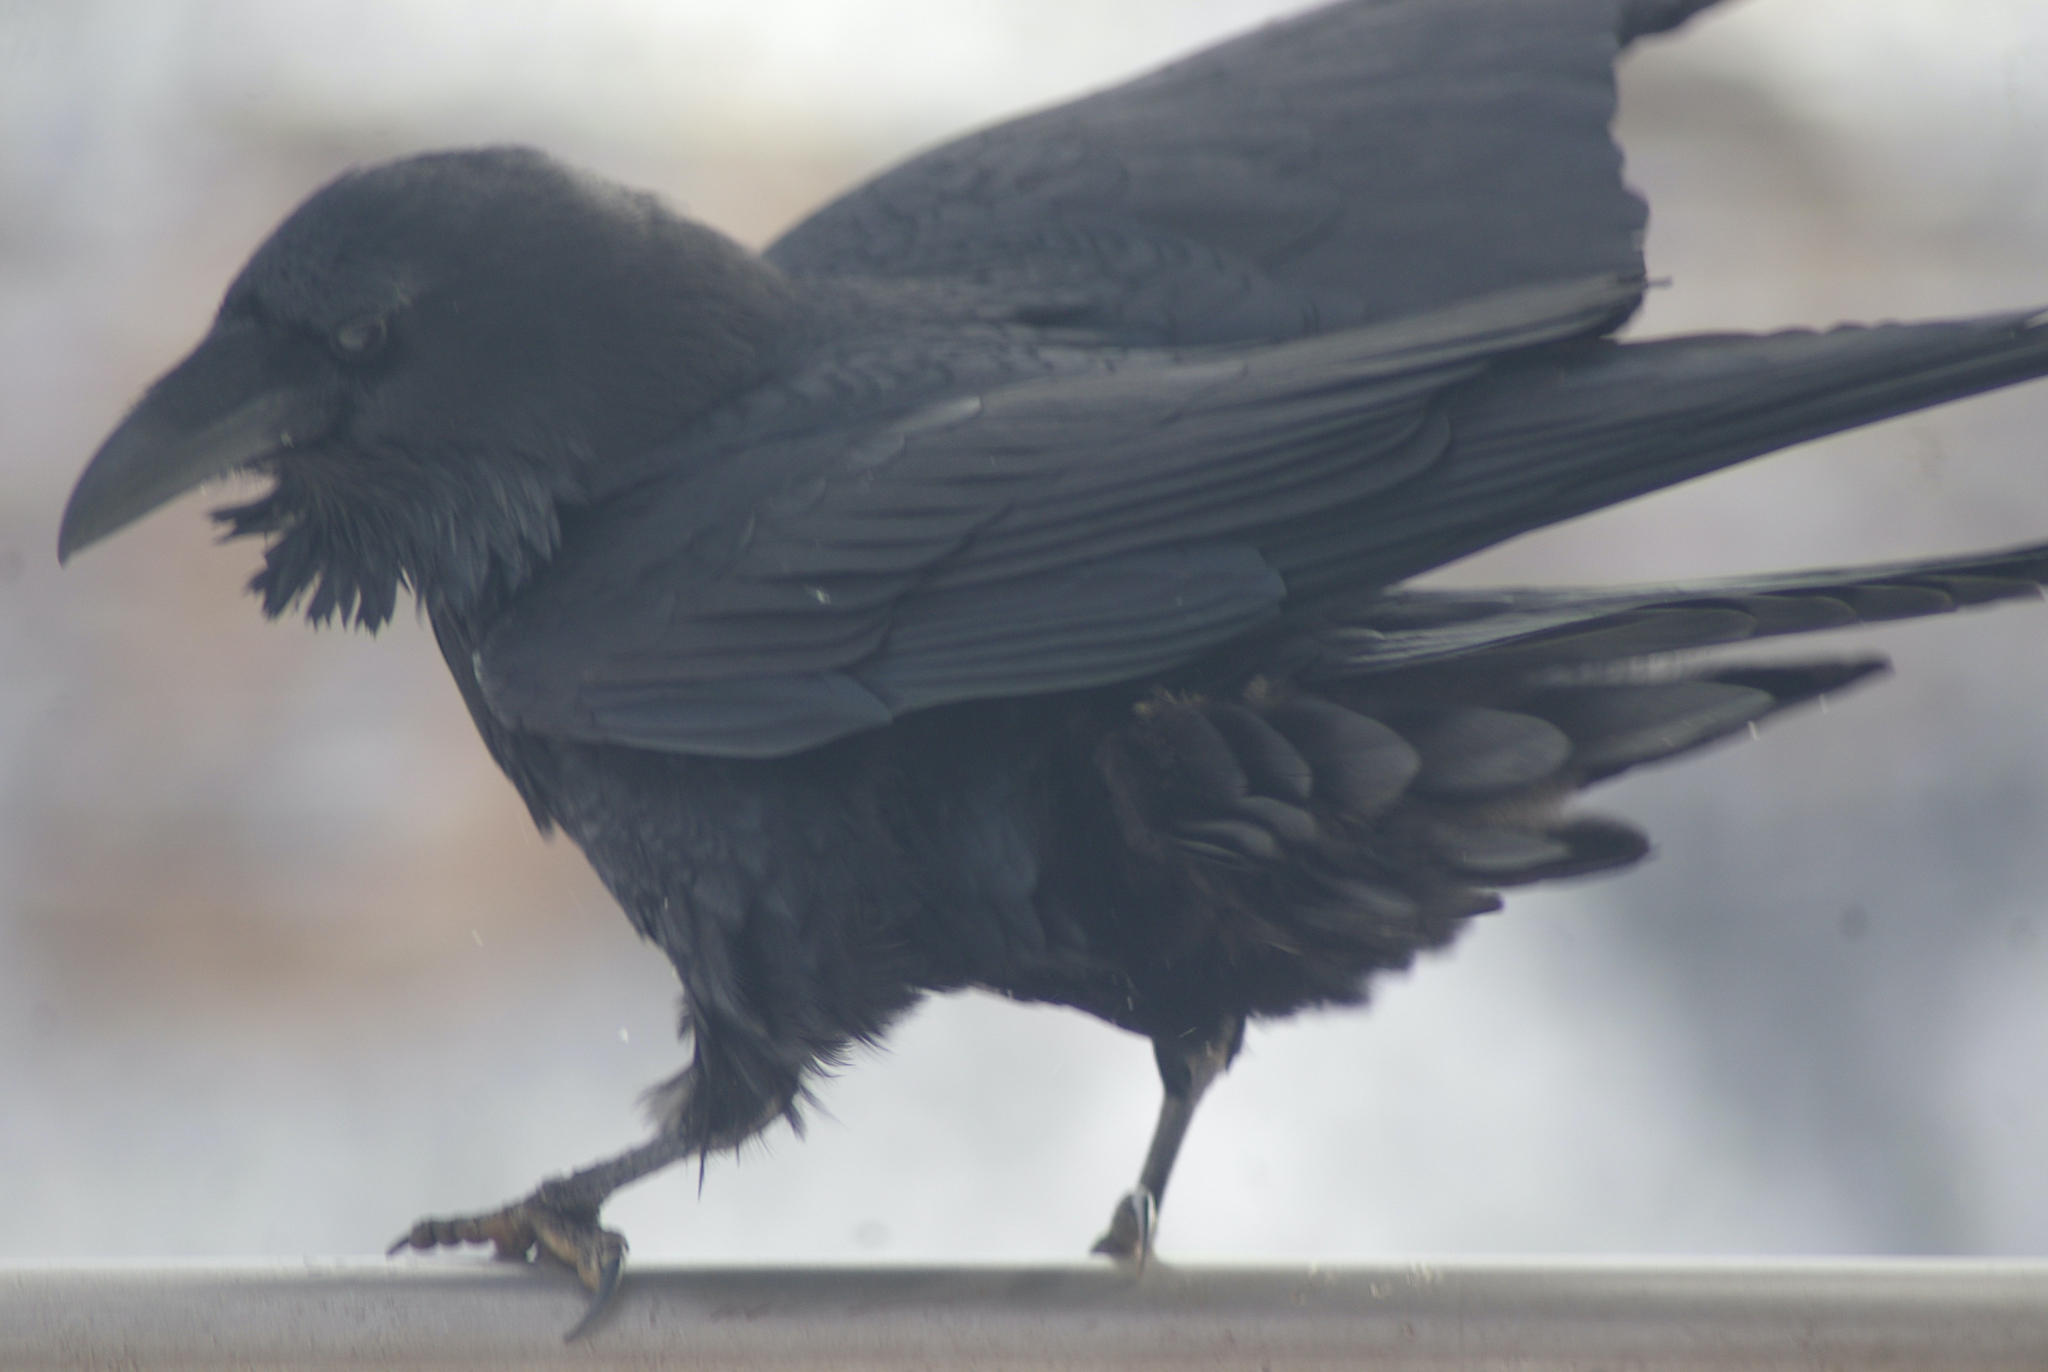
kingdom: Animalia
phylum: Chordata
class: Aves
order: Passeriformes
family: Corvidae
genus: Corvus
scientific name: Corvus corax
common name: Common raven
